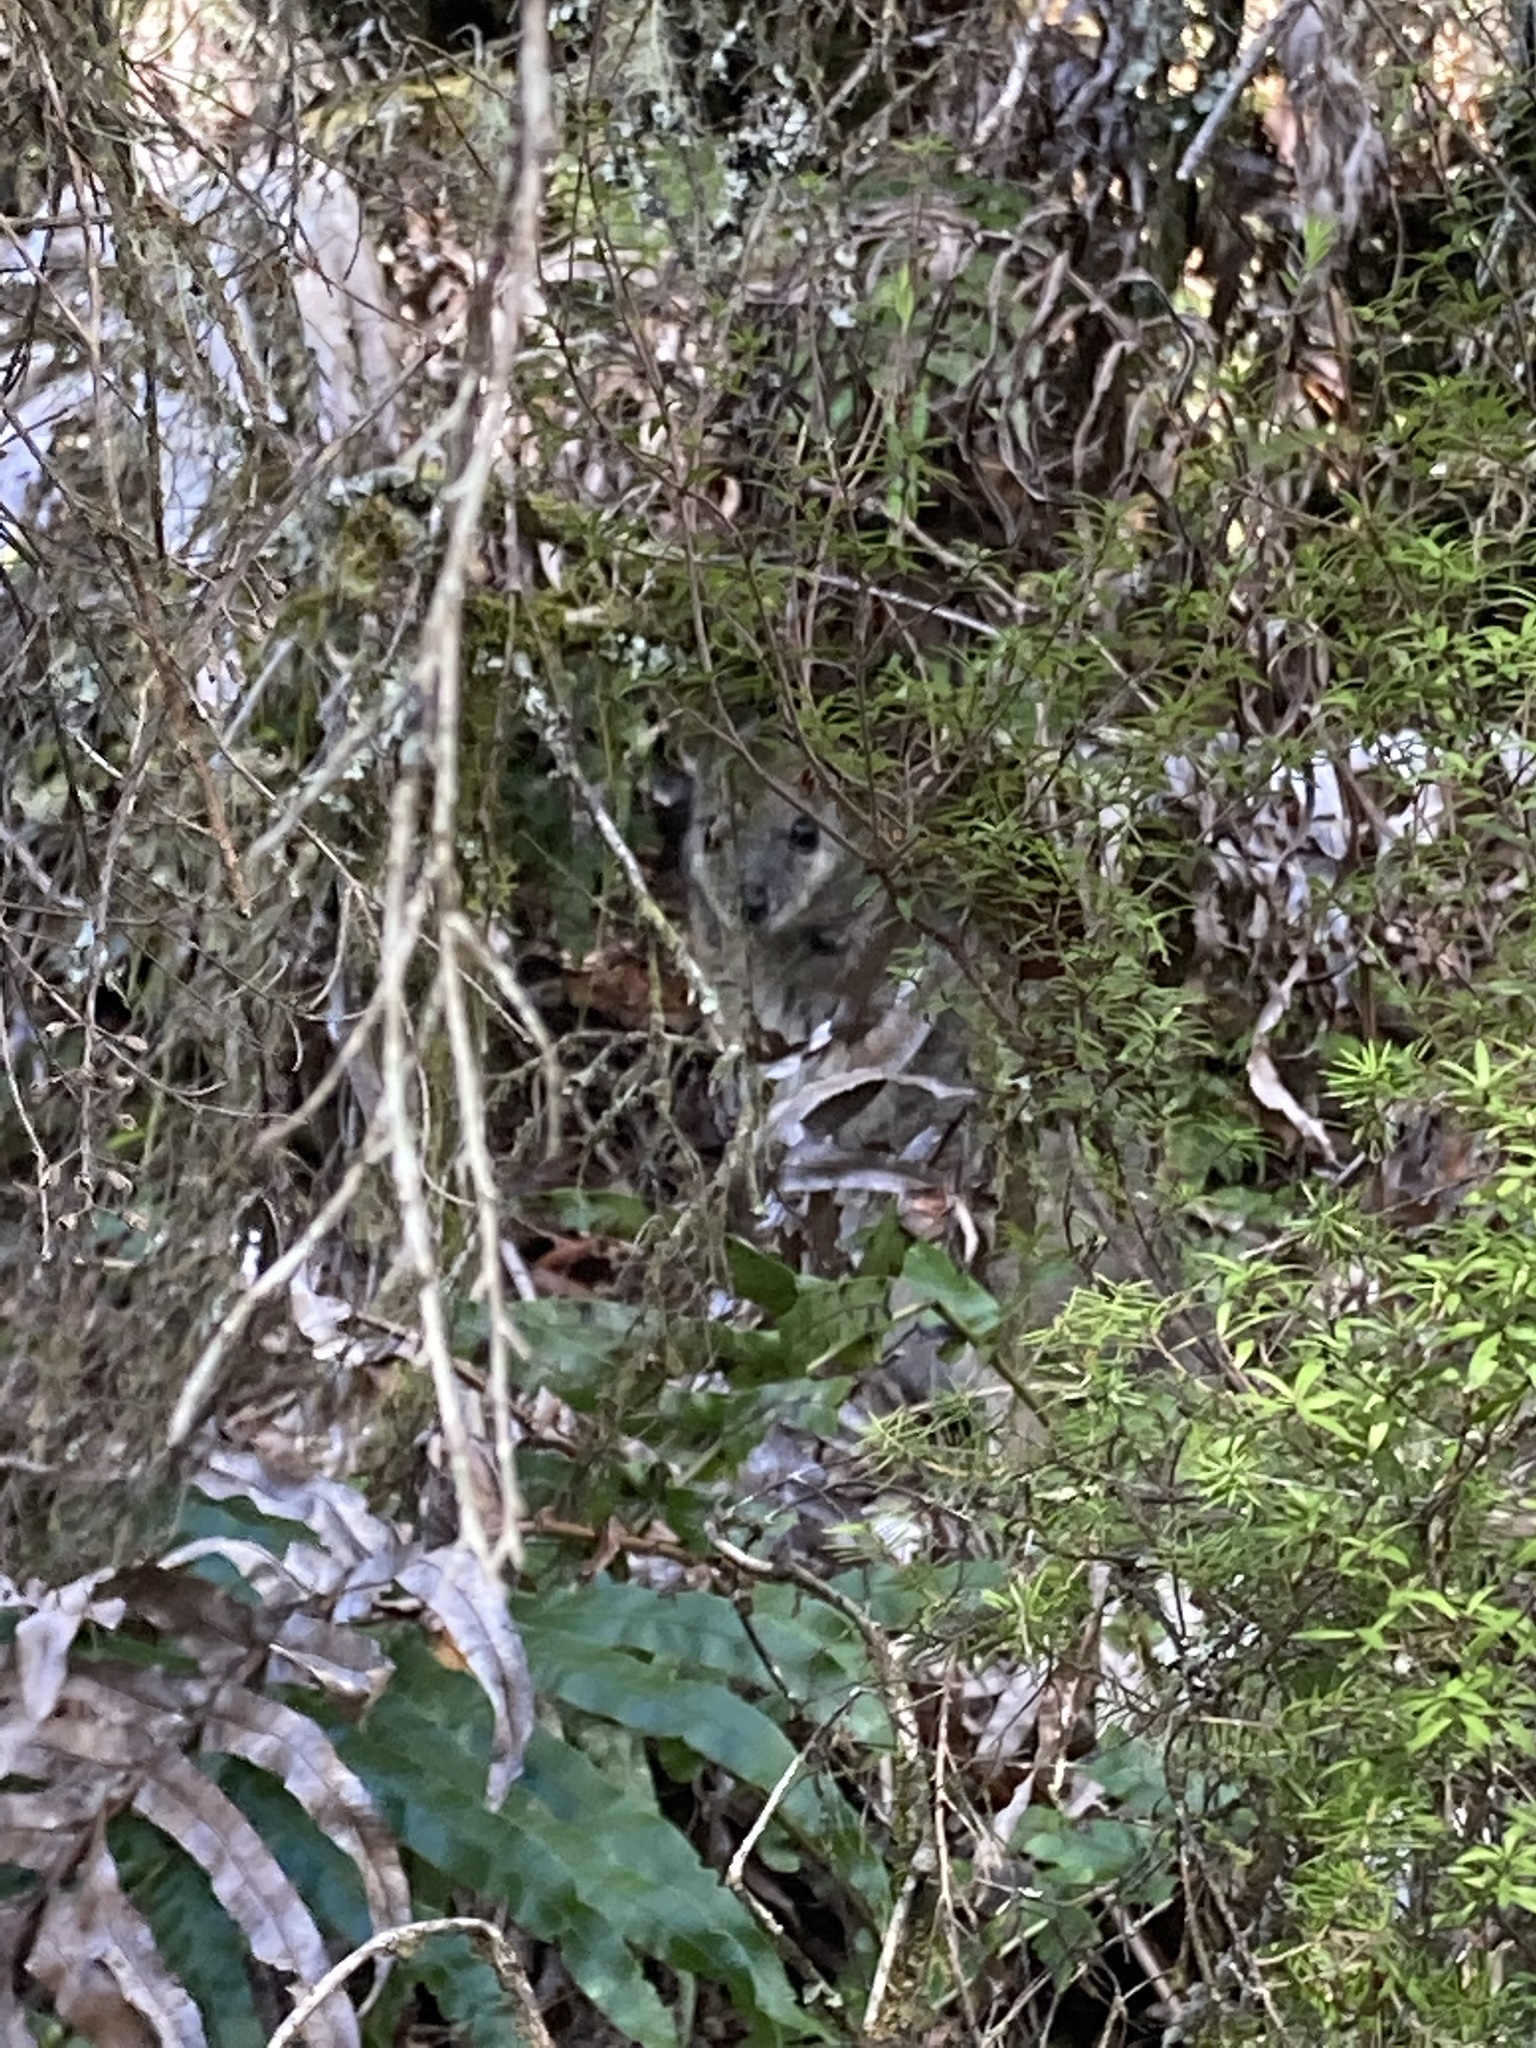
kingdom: Animalia
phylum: Chordata
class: Mammalia
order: Diprotodontia
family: Macropodidae
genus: Macropus
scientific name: Macropus eugenii
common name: Tammar wallaby
